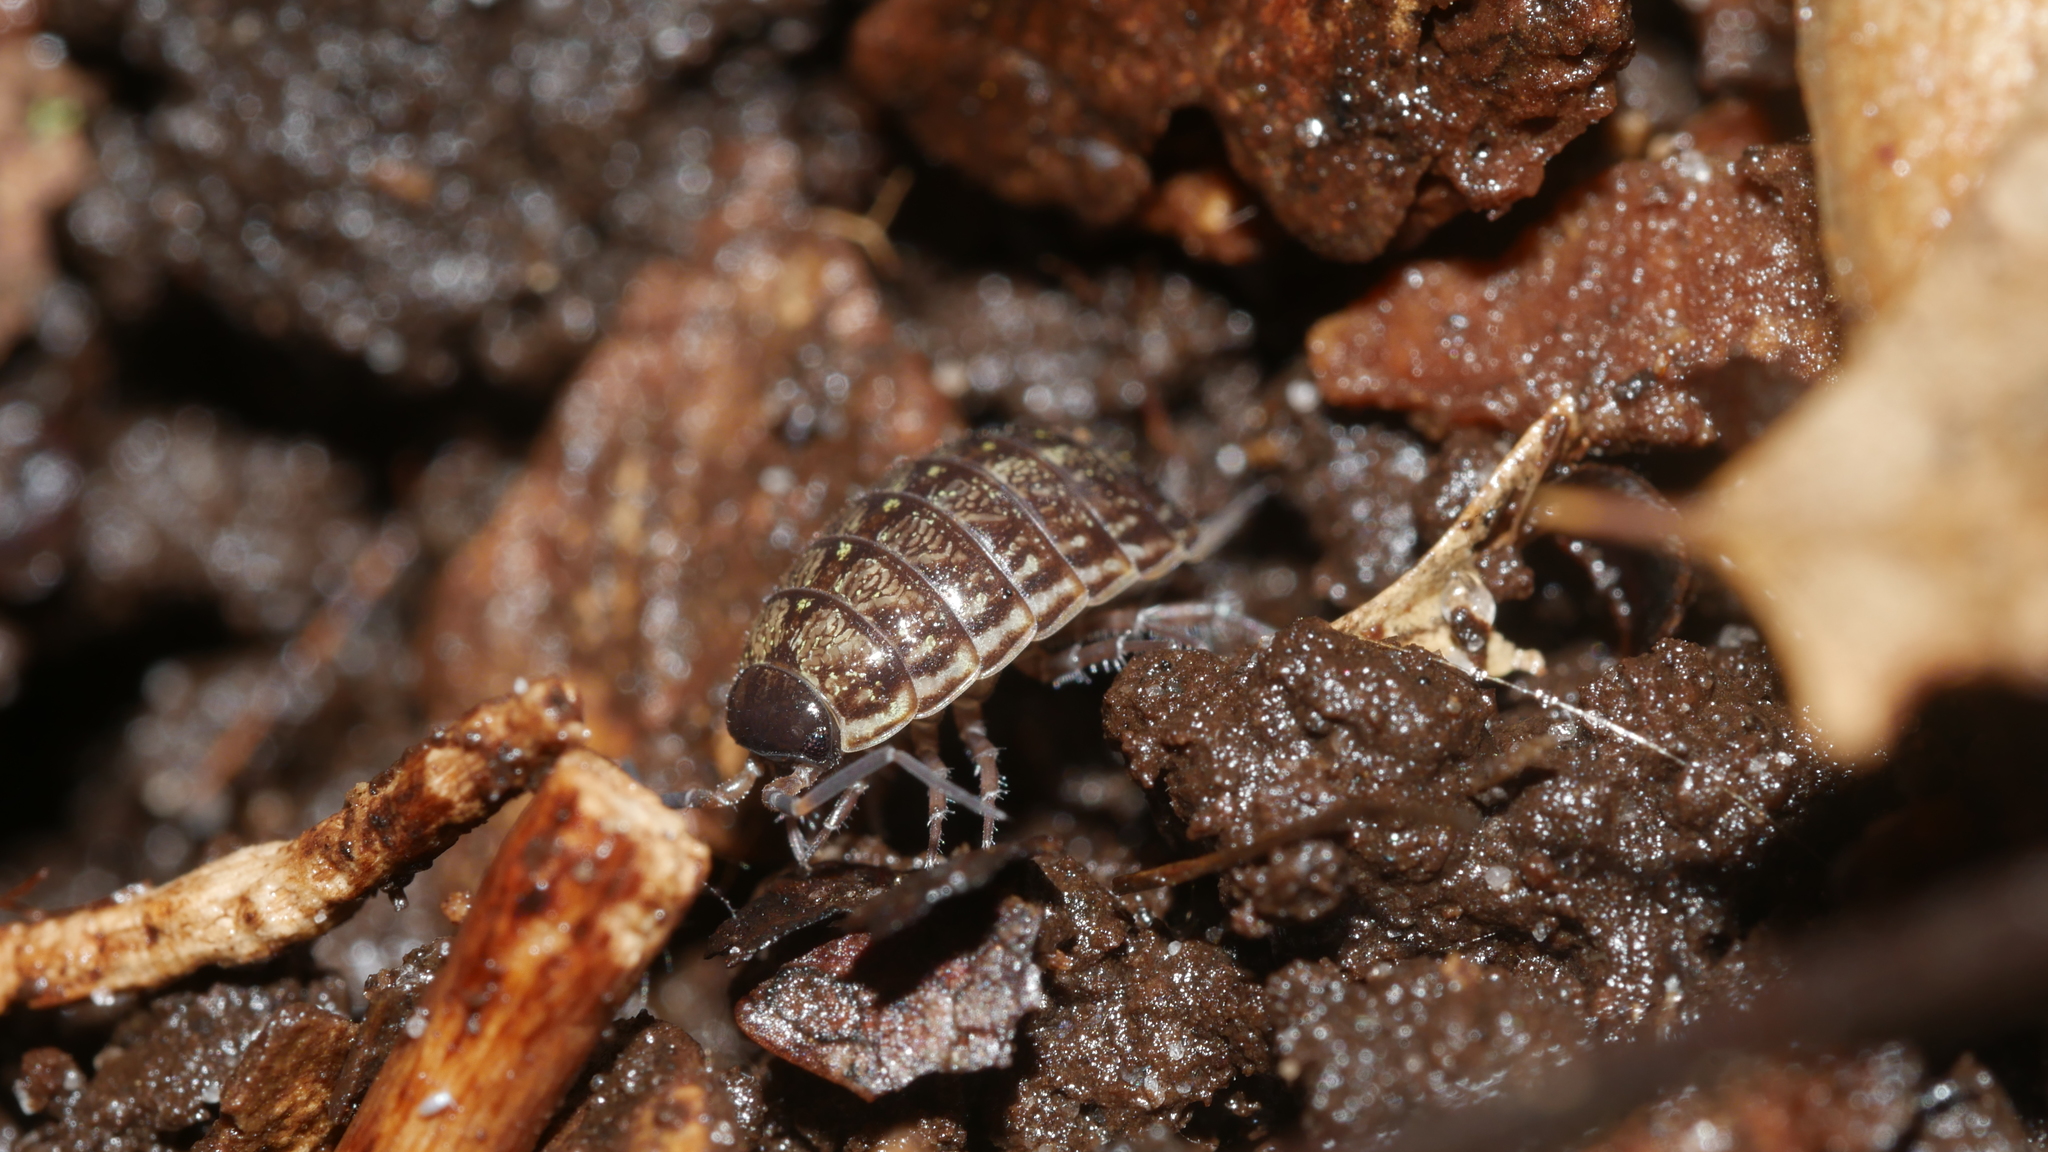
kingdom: Animalia
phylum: Arthropoda
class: Malacostraca
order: Isopoda
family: Philosciidae
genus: Philoscia
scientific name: Philoscia muscorum
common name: Common striped woodlouse
